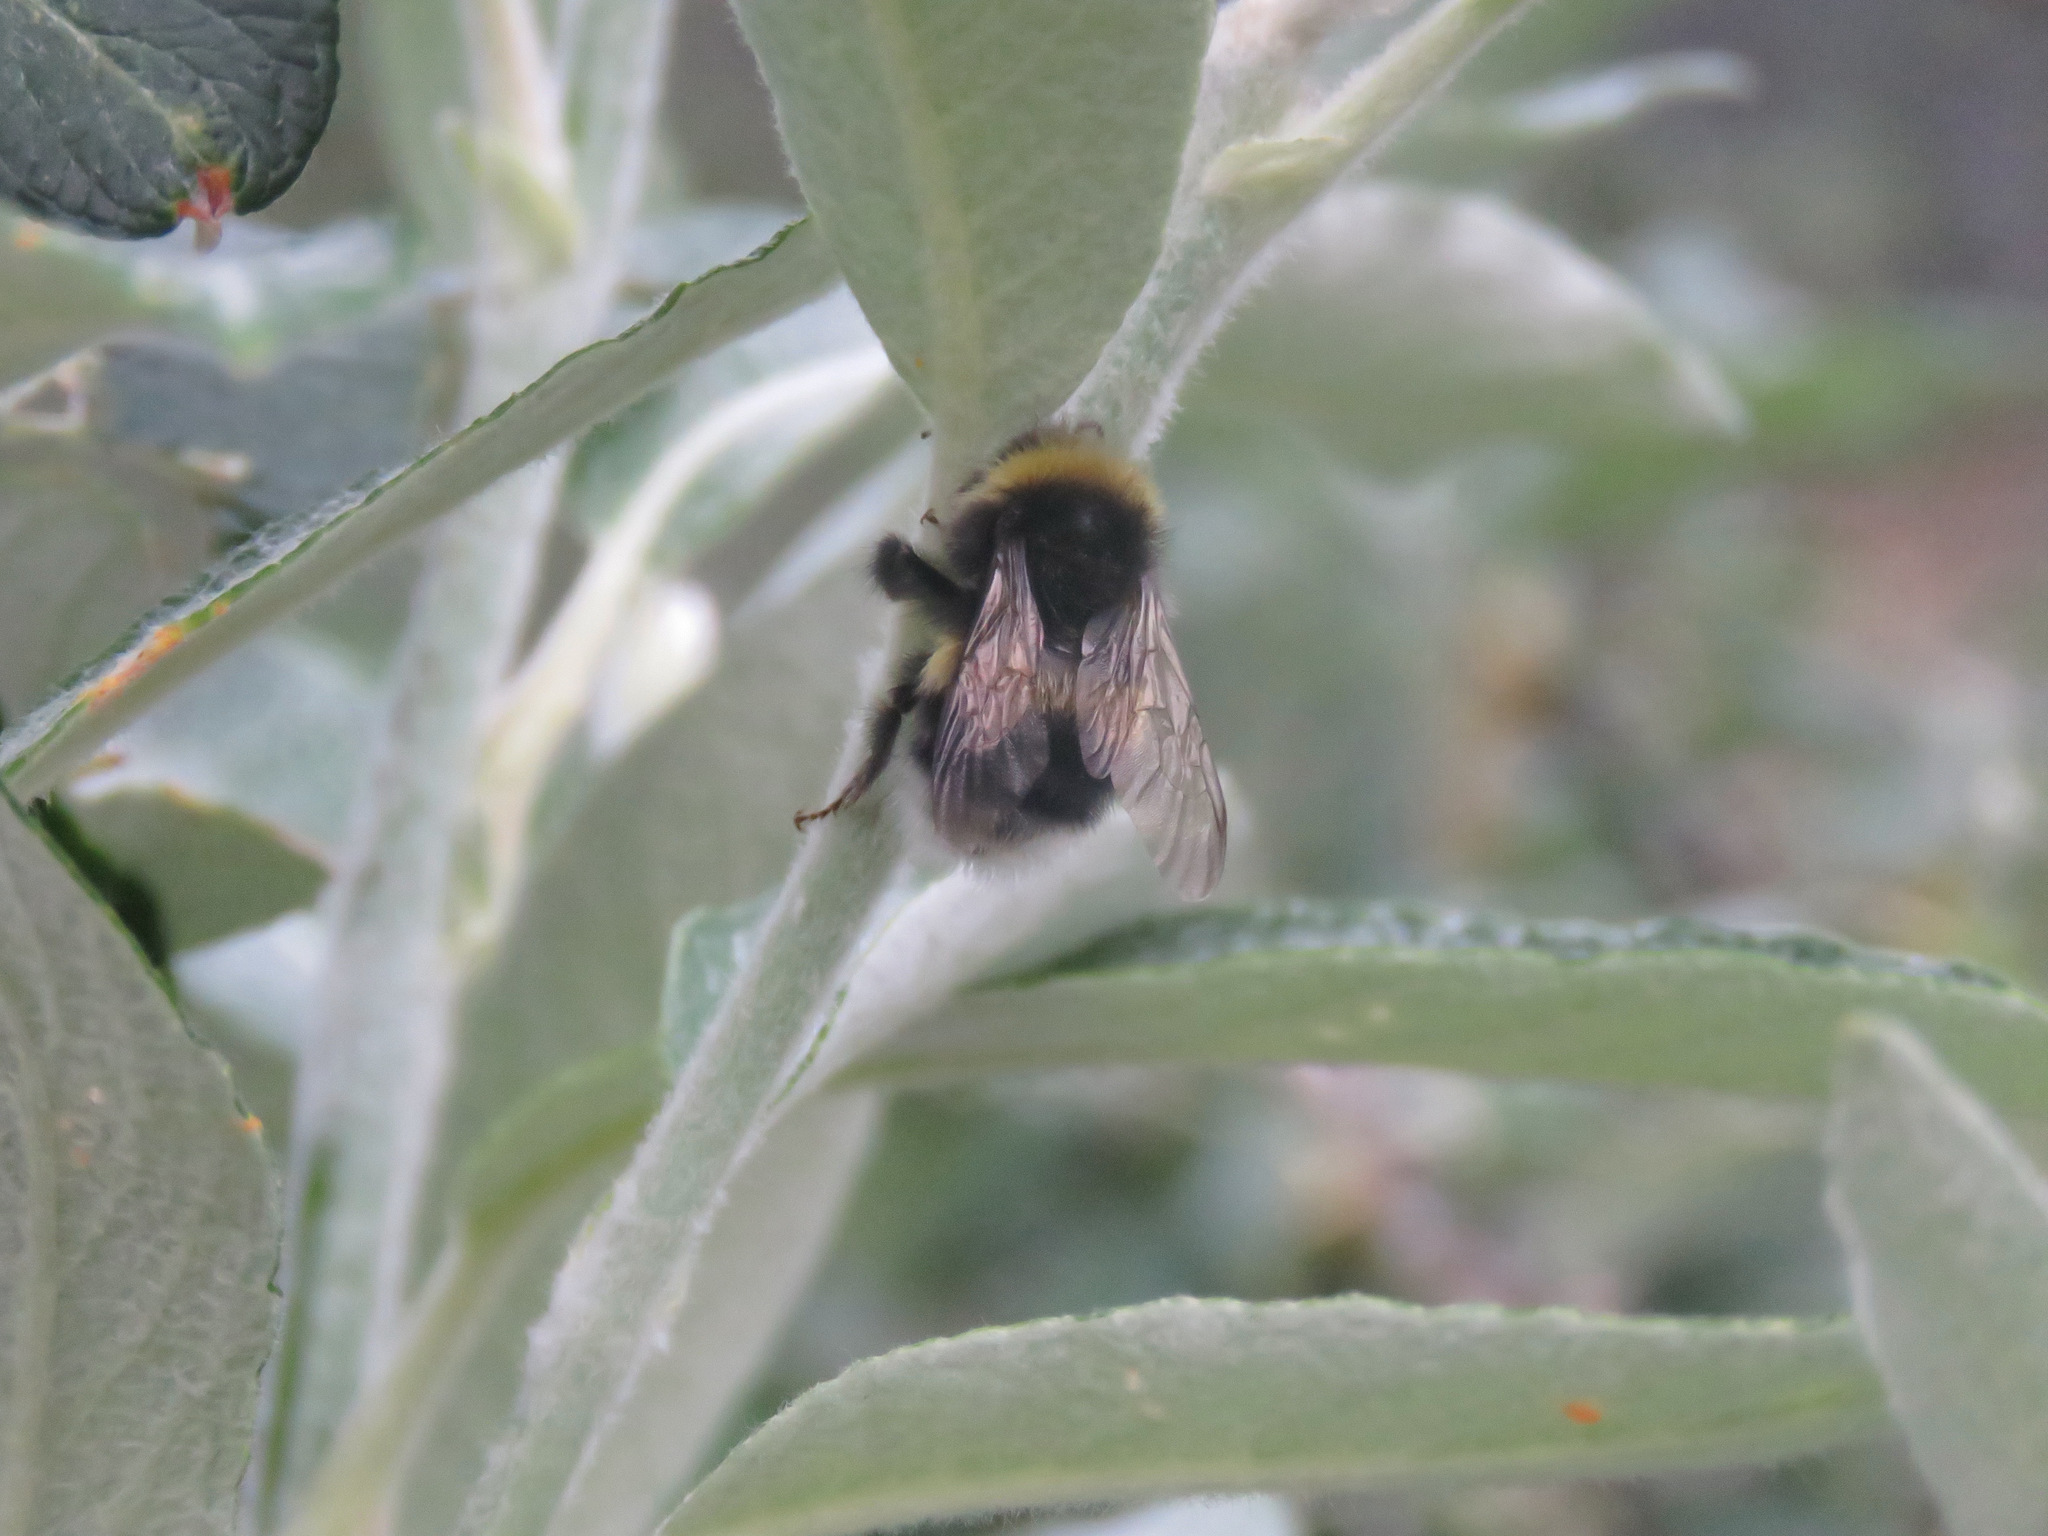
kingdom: Animalia
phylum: Arthropoda
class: Insecta
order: Hymenoptera
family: Apidae
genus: Bombus
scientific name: Bombus cryptarum
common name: Cryptic bumblebee
